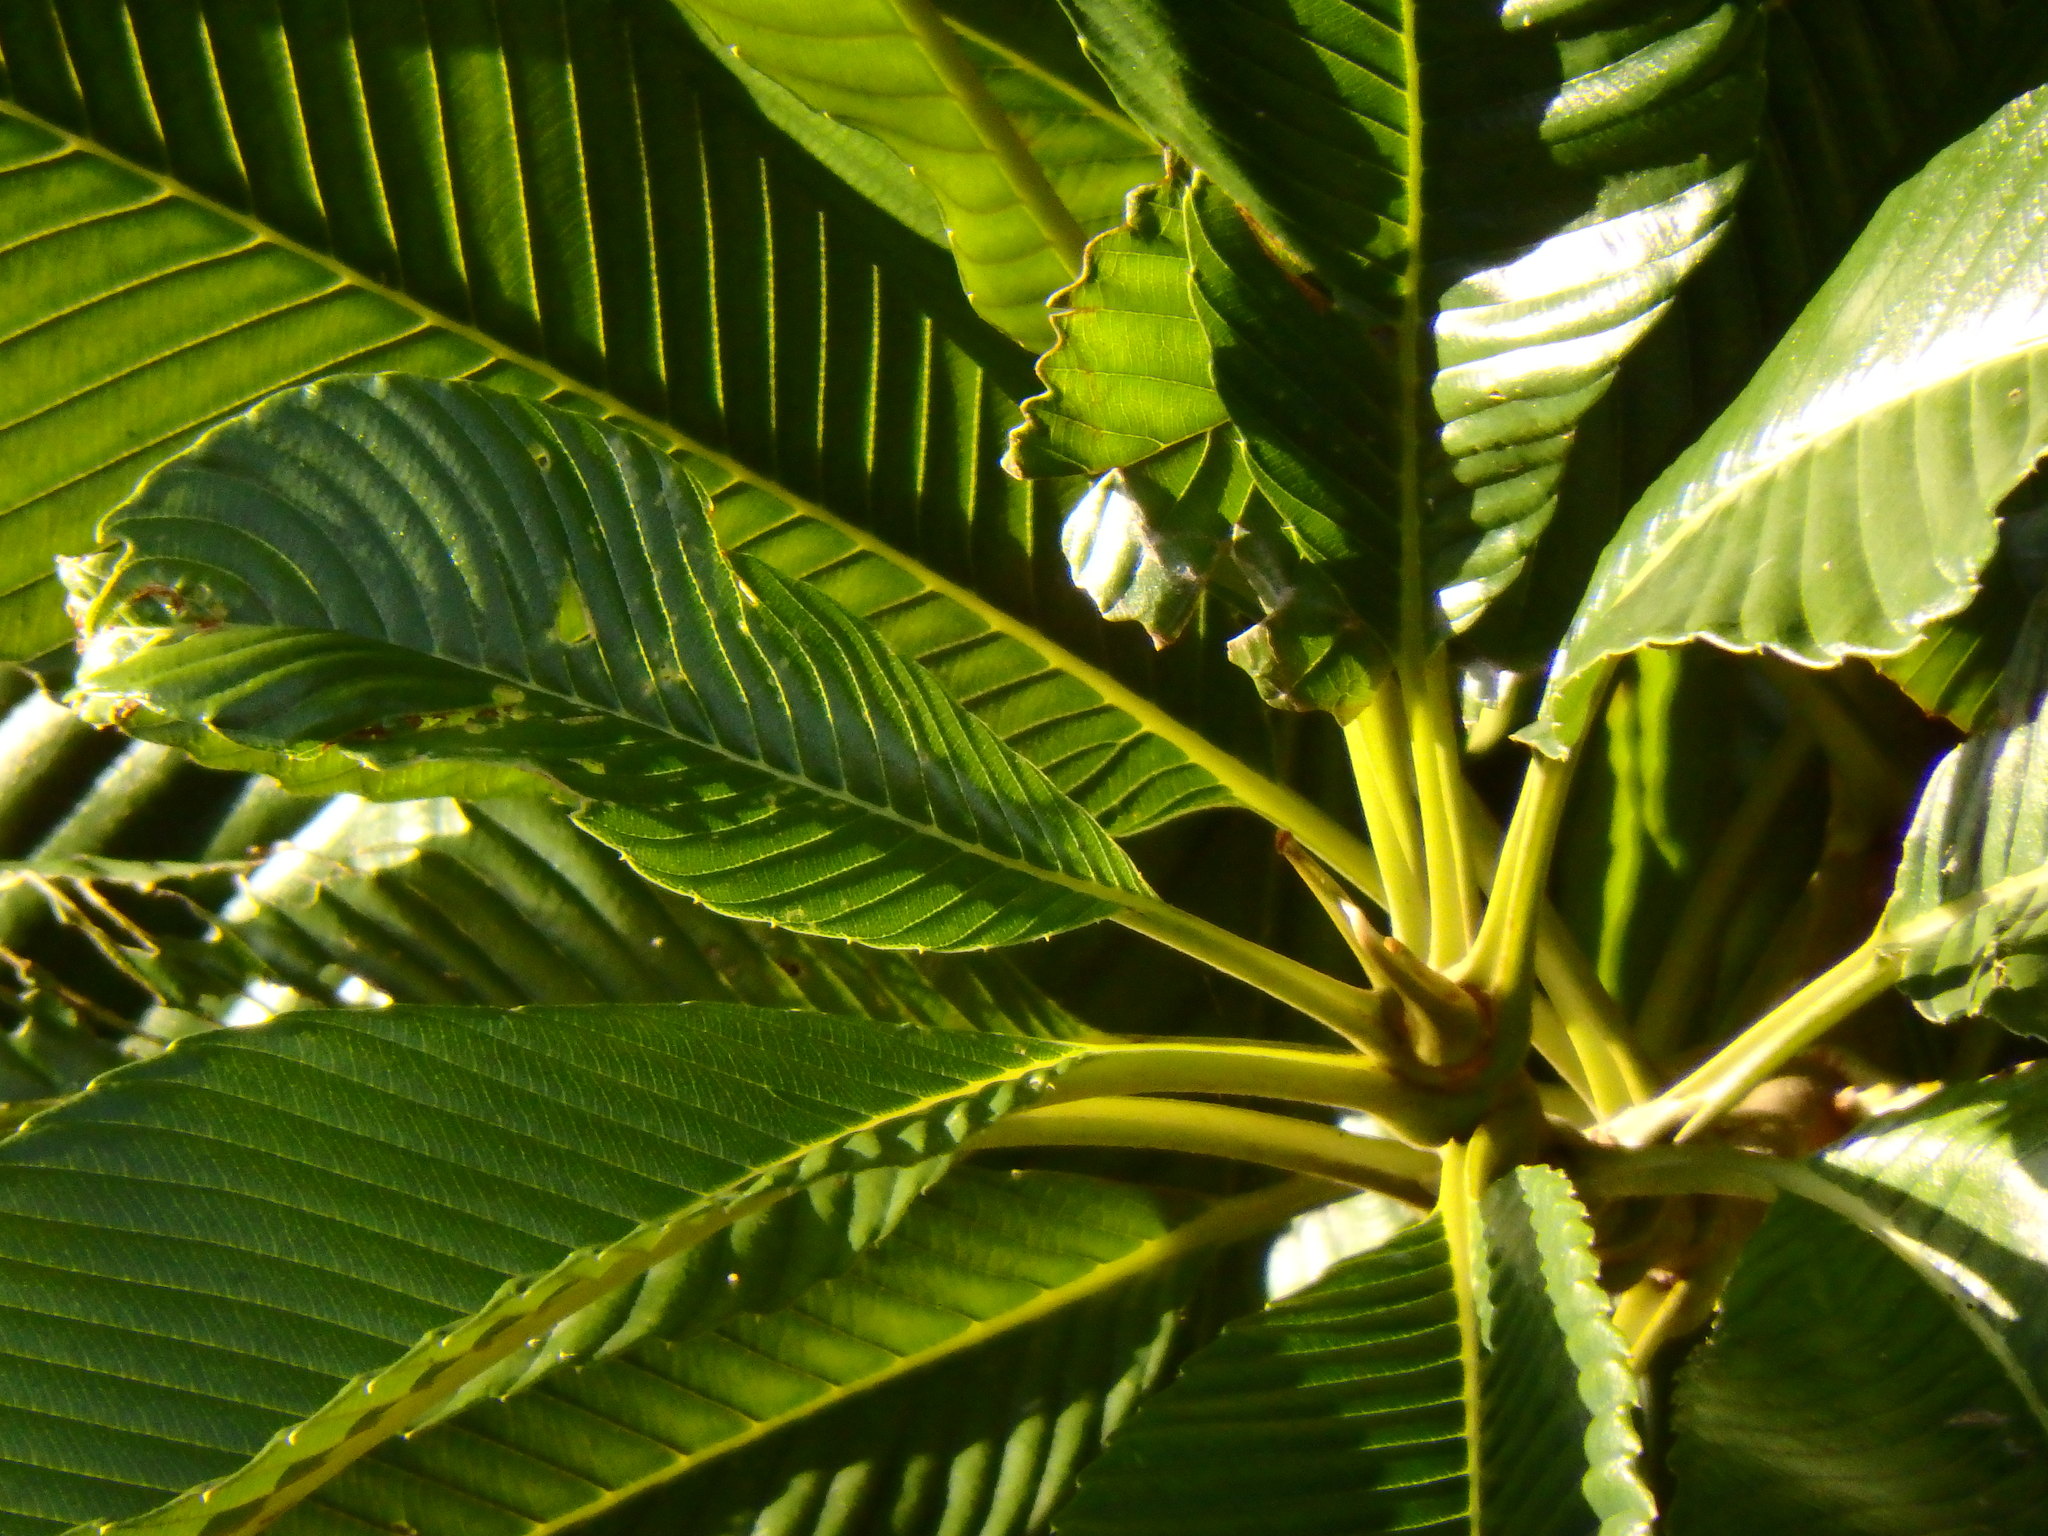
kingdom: Plantae
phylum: Tracheophyta
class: Magnoliopsida
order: Dilleniales
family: Dilleniaceae
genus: Dillenia
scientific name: Dillenia indica
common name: Elephant apple
